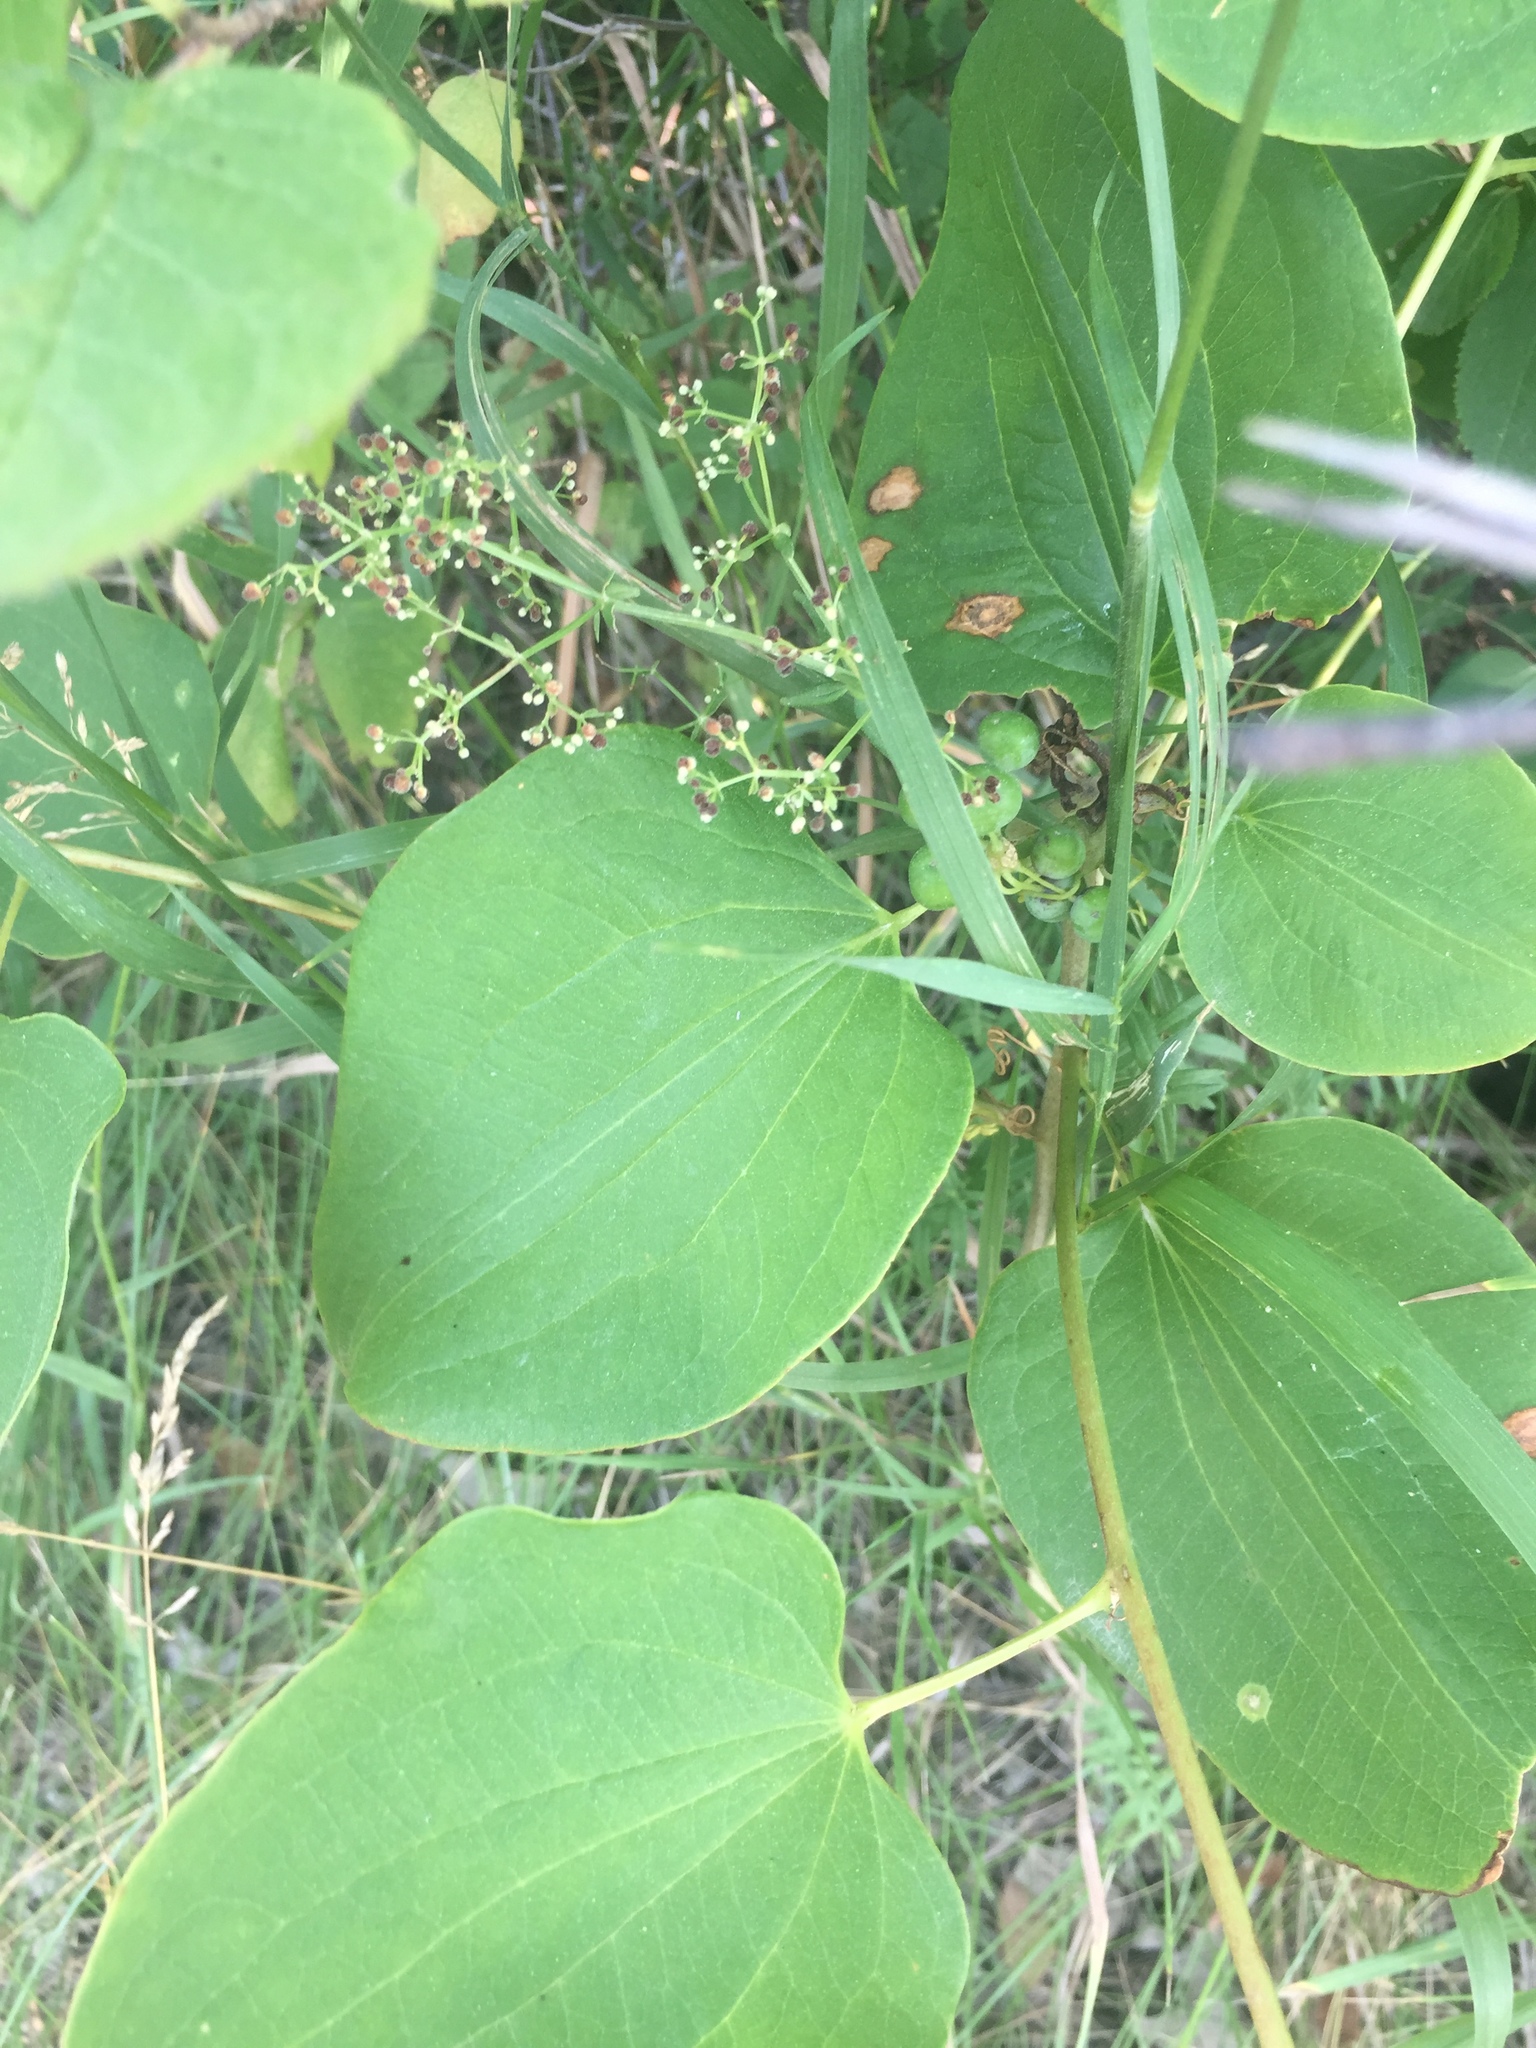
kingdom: Plantae
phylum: Tracheophyta
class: Liliopsida
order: Liliales
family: Smilacaceae
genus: Smilax
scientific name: Smilax lasioneura
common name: Blue ridge carrionflower
